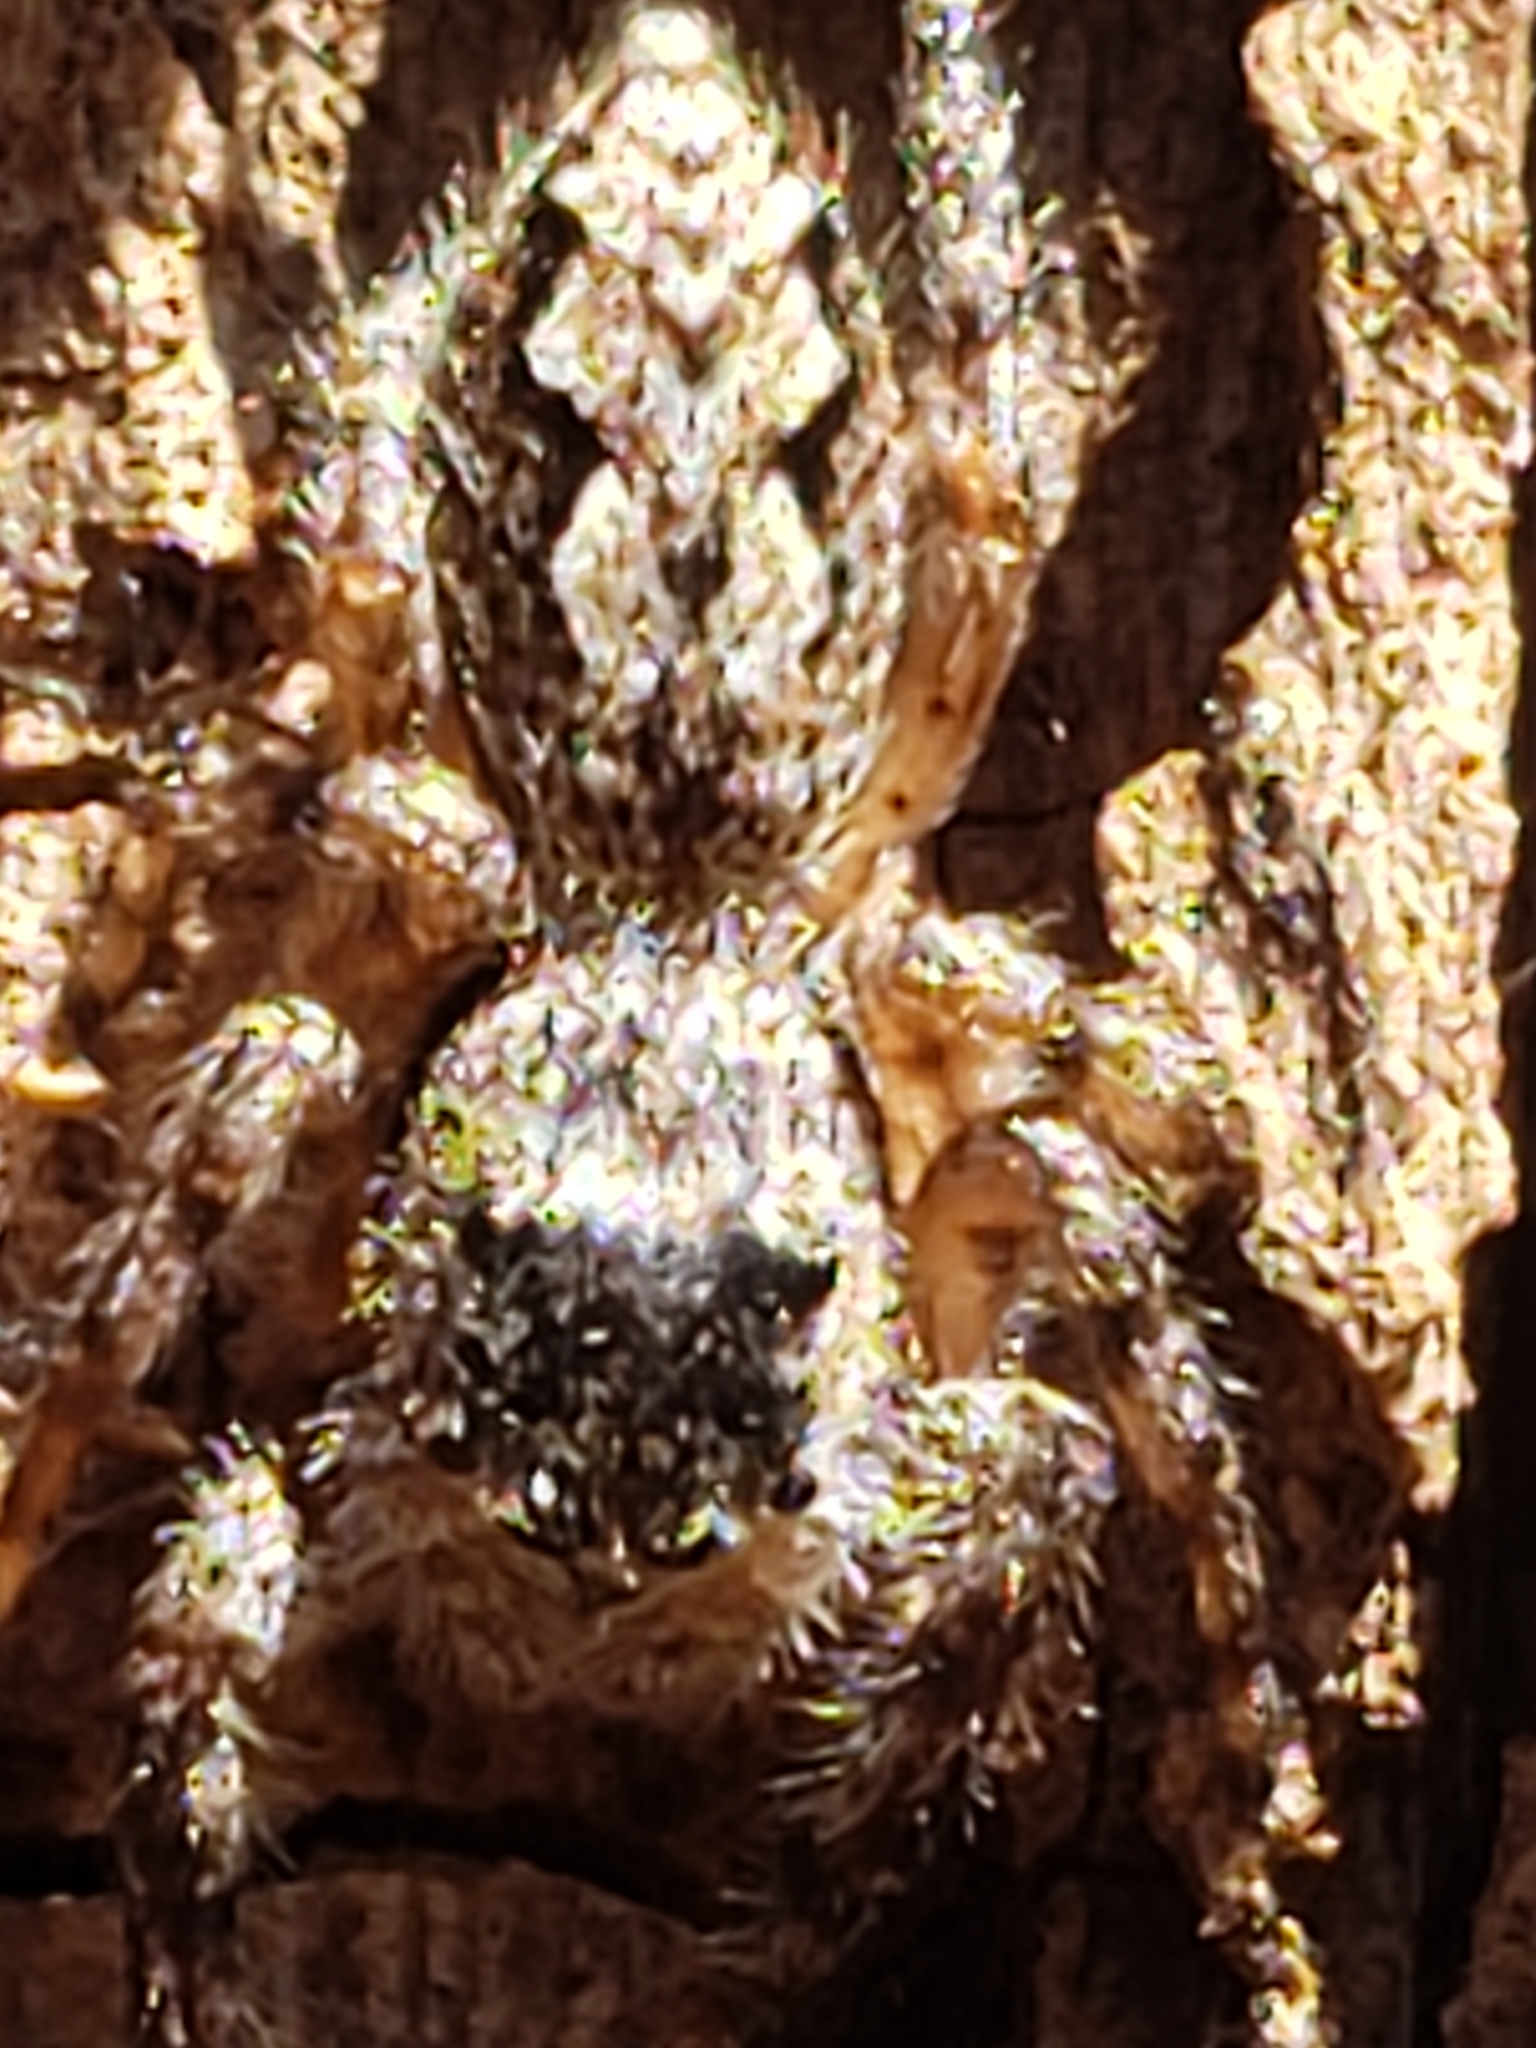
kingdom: Animalia
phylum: Arthropoda
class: Arachnida
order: Araneae
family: Salticidae
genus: Platycryptus
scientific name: Platycryptus undatus
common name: Tan jumping spider
